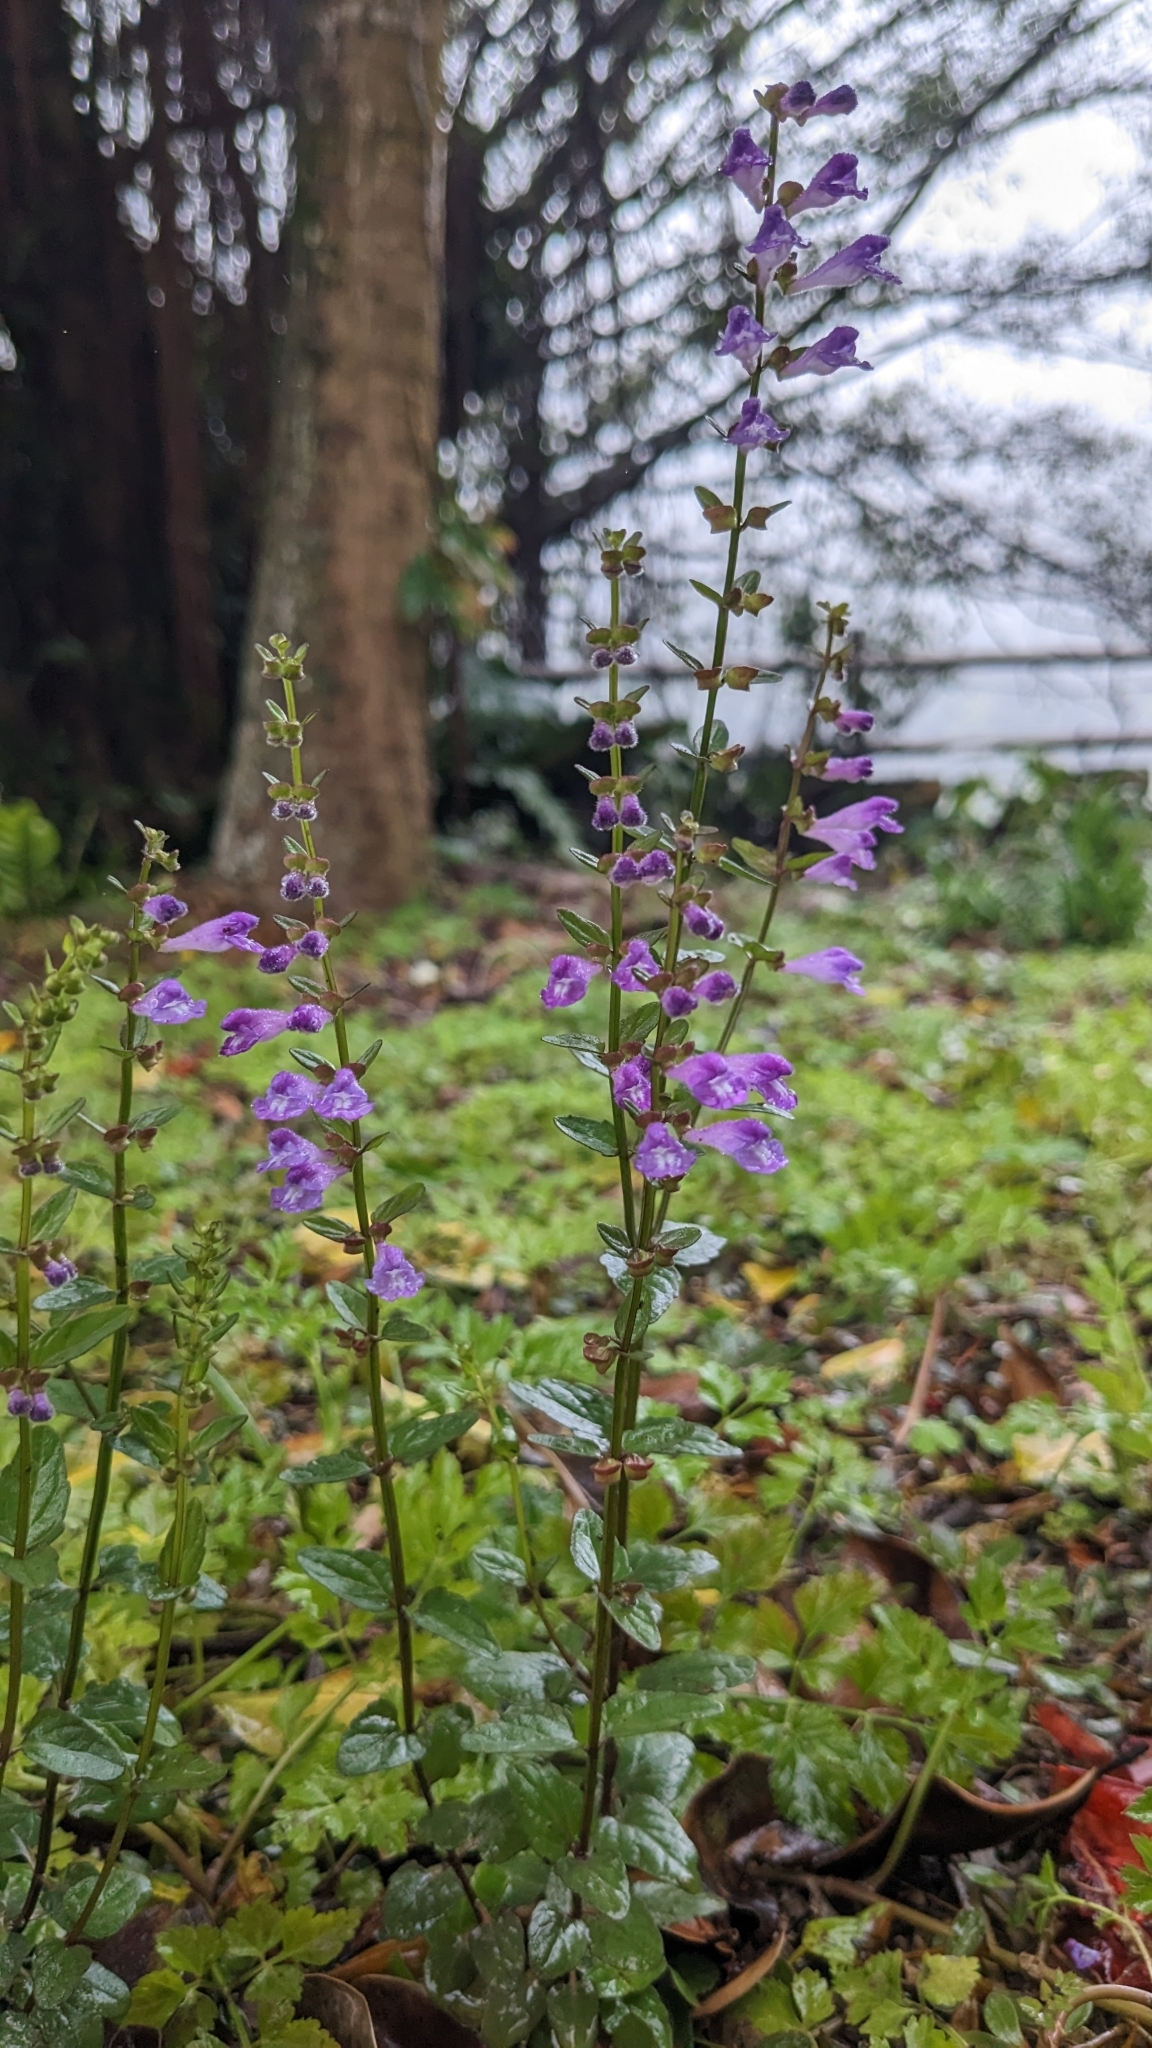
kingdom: Plantae
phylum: Tracheophyta
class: Magnoliopsida
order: Lamiales
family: Lamiaceae
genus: Scutellaria
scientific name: Scutellaria barbata
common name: Barbed skullcap
